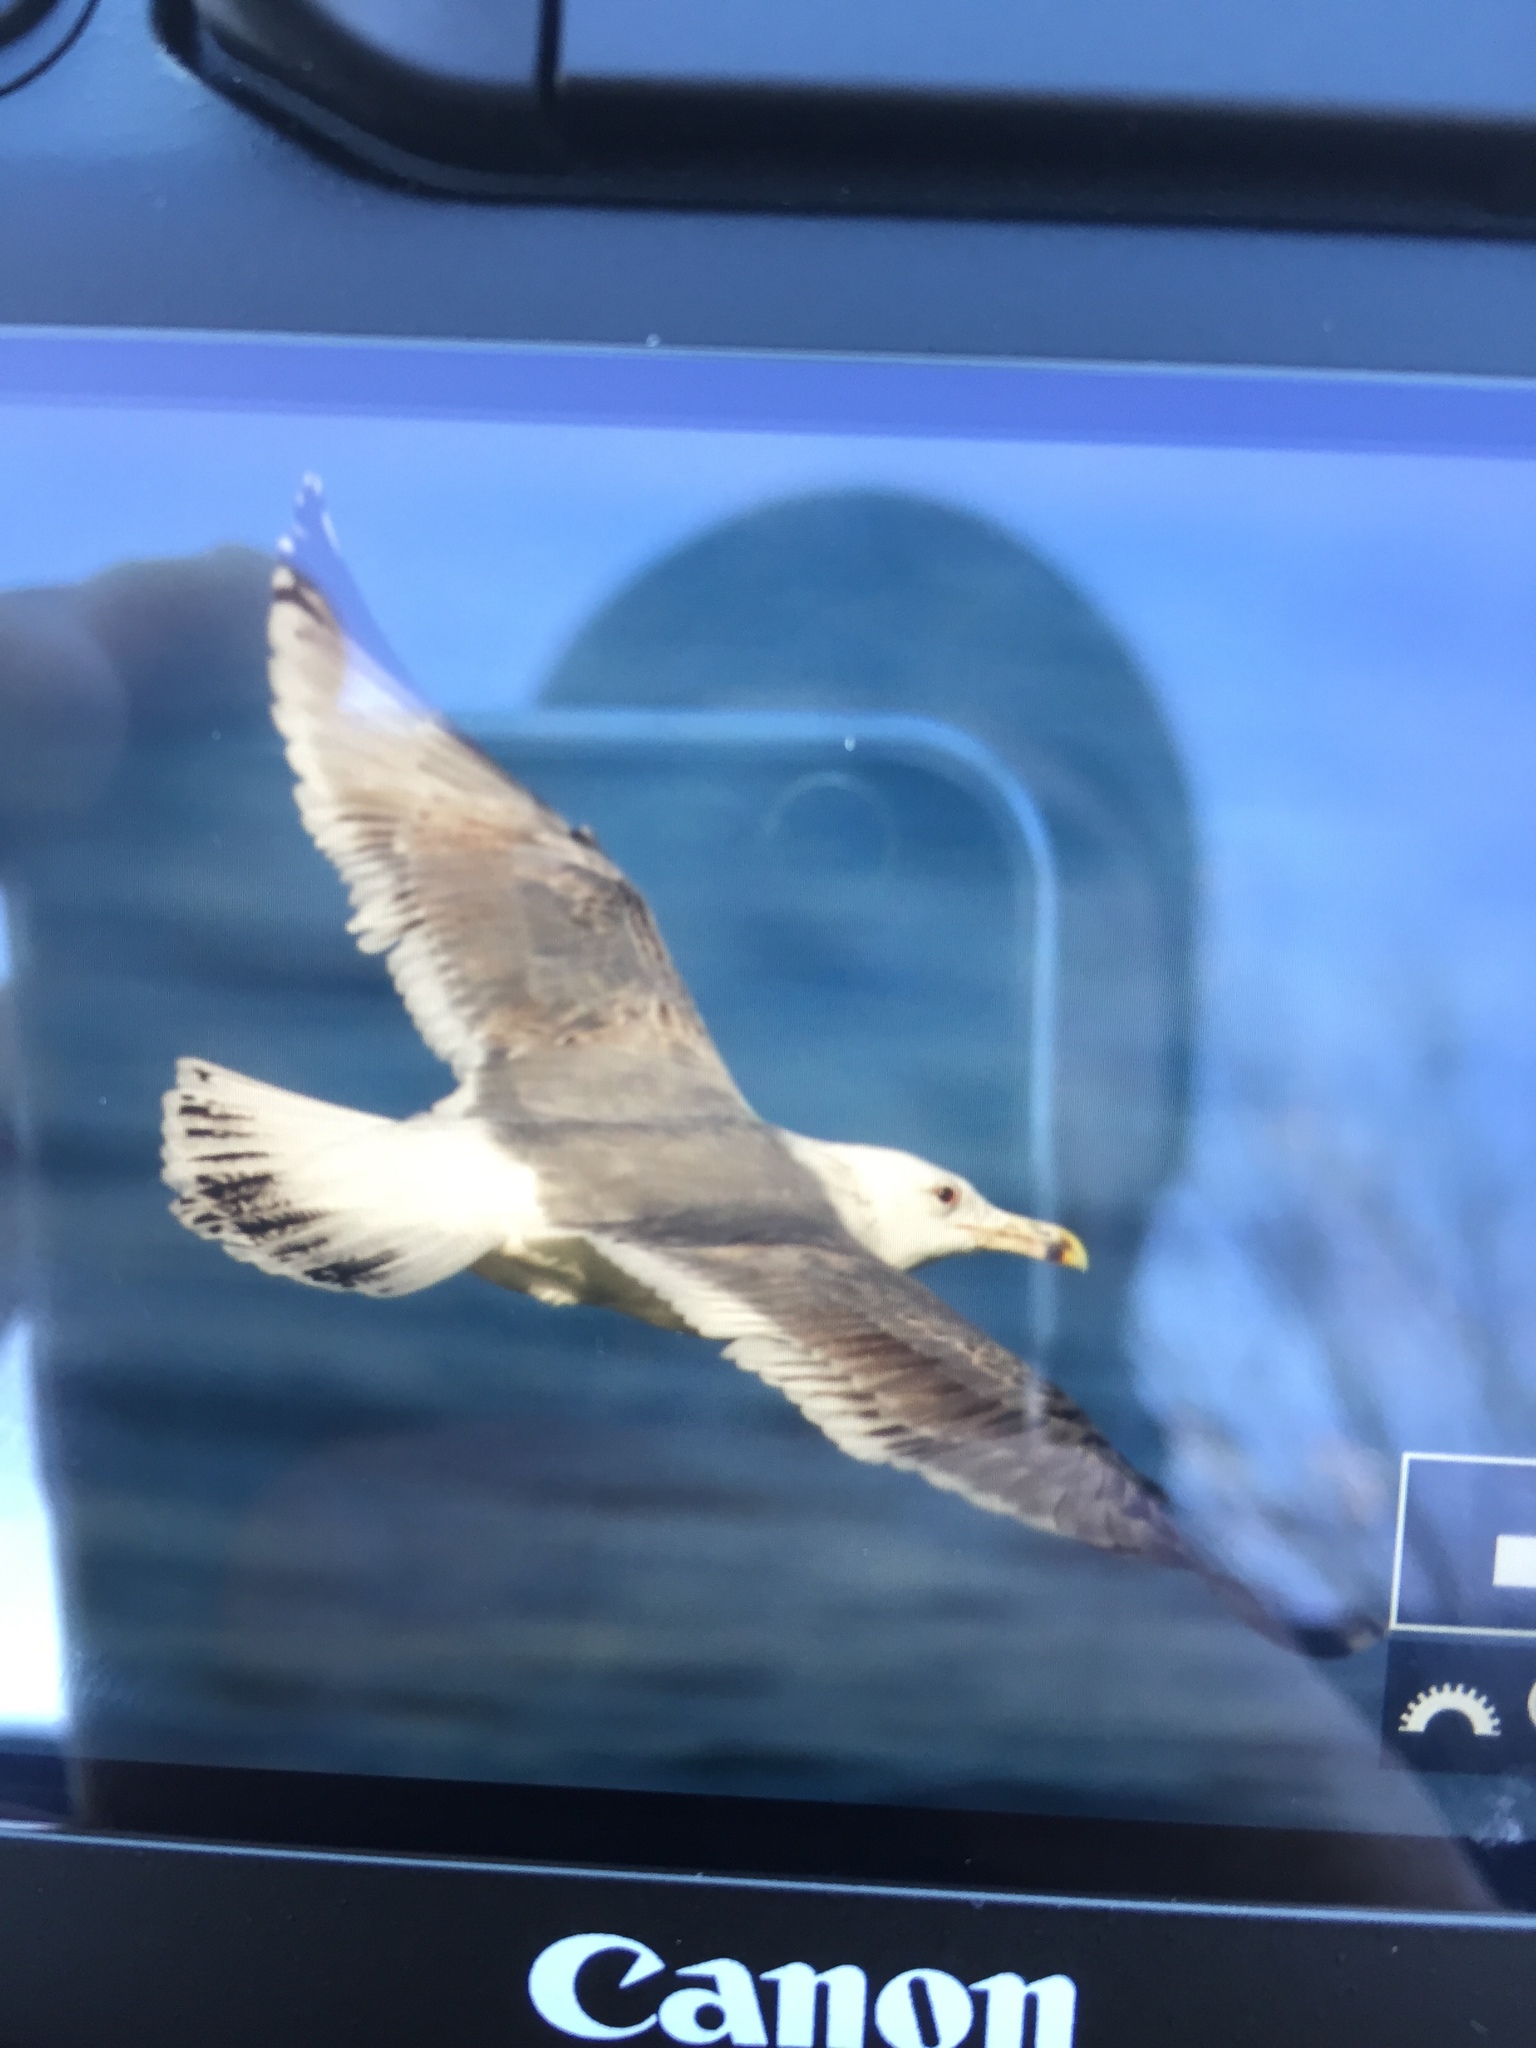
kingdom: Animalia
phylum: Chordata
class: Aves
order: Charadriiformes
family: Laridae
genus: Larus
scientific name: Larus cachinnans
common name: Caspian gull
